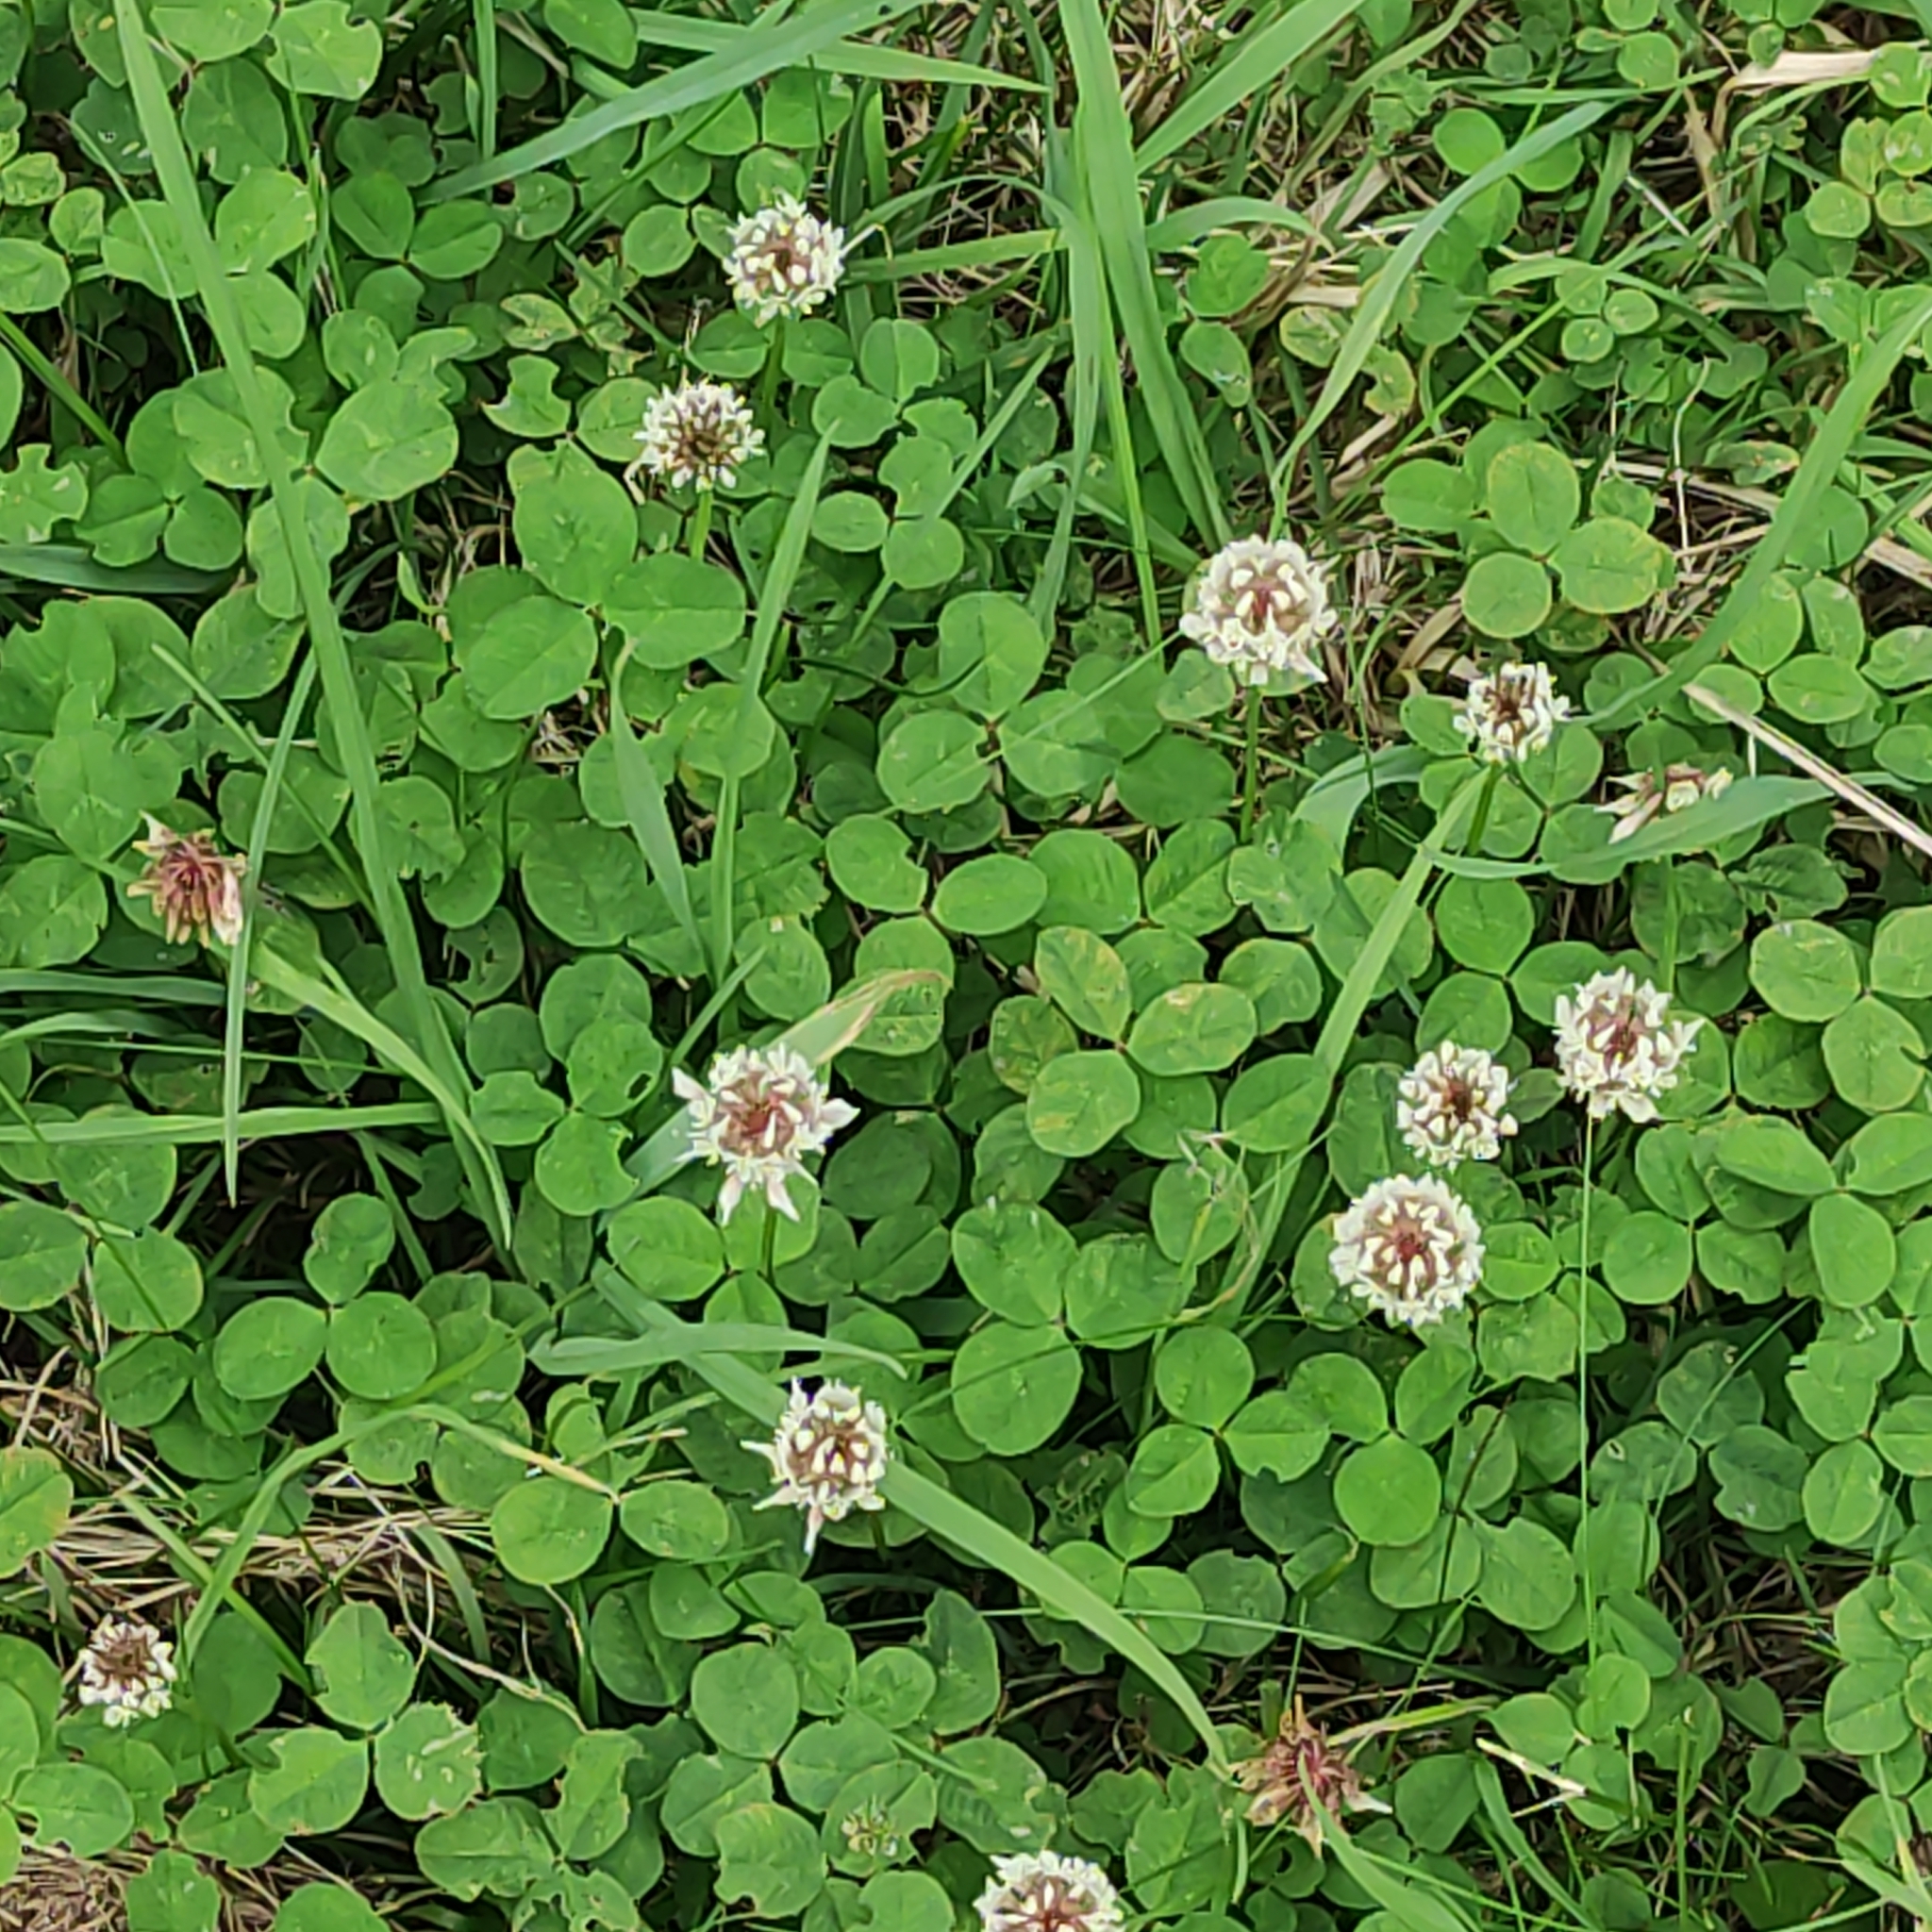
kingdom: Plantae
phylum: Tracheophyta
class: Magnoliopsida
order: Fabales
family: Fabaceae
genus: Trifolium
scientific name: Trifolium repens
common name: White clover
